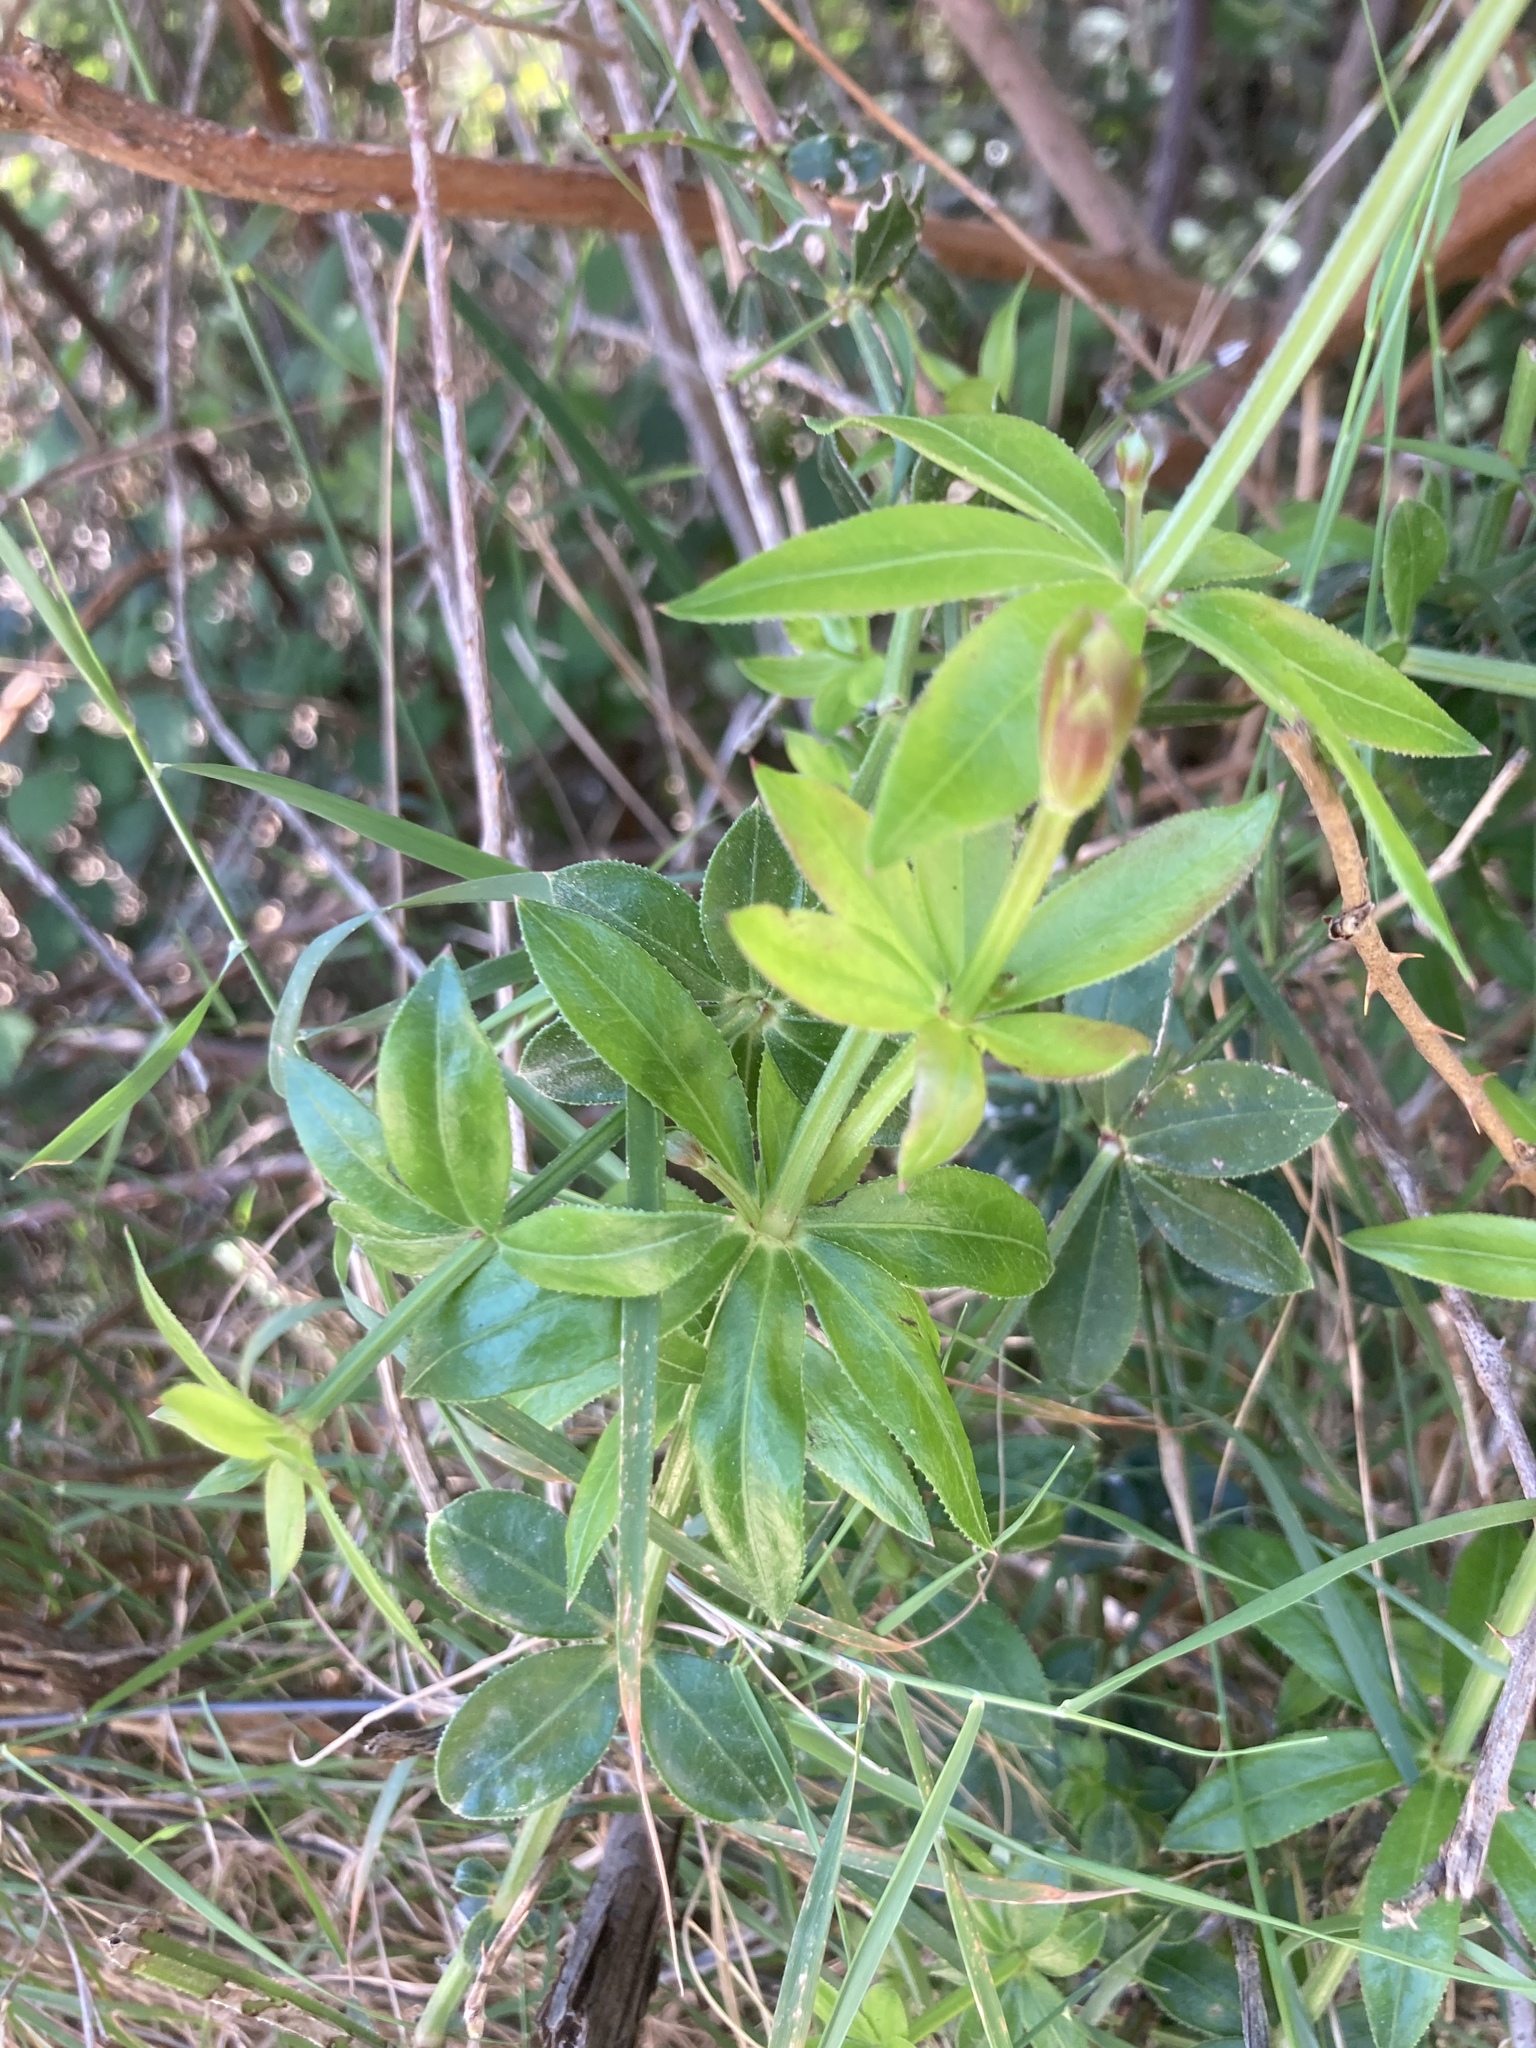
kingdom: Plantae
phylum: Tracheophyta
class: Magnoliopsida
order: Gentianales
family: Rubiaceae
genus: Rubia
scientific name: Rubia peregrina
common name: Wild madder
